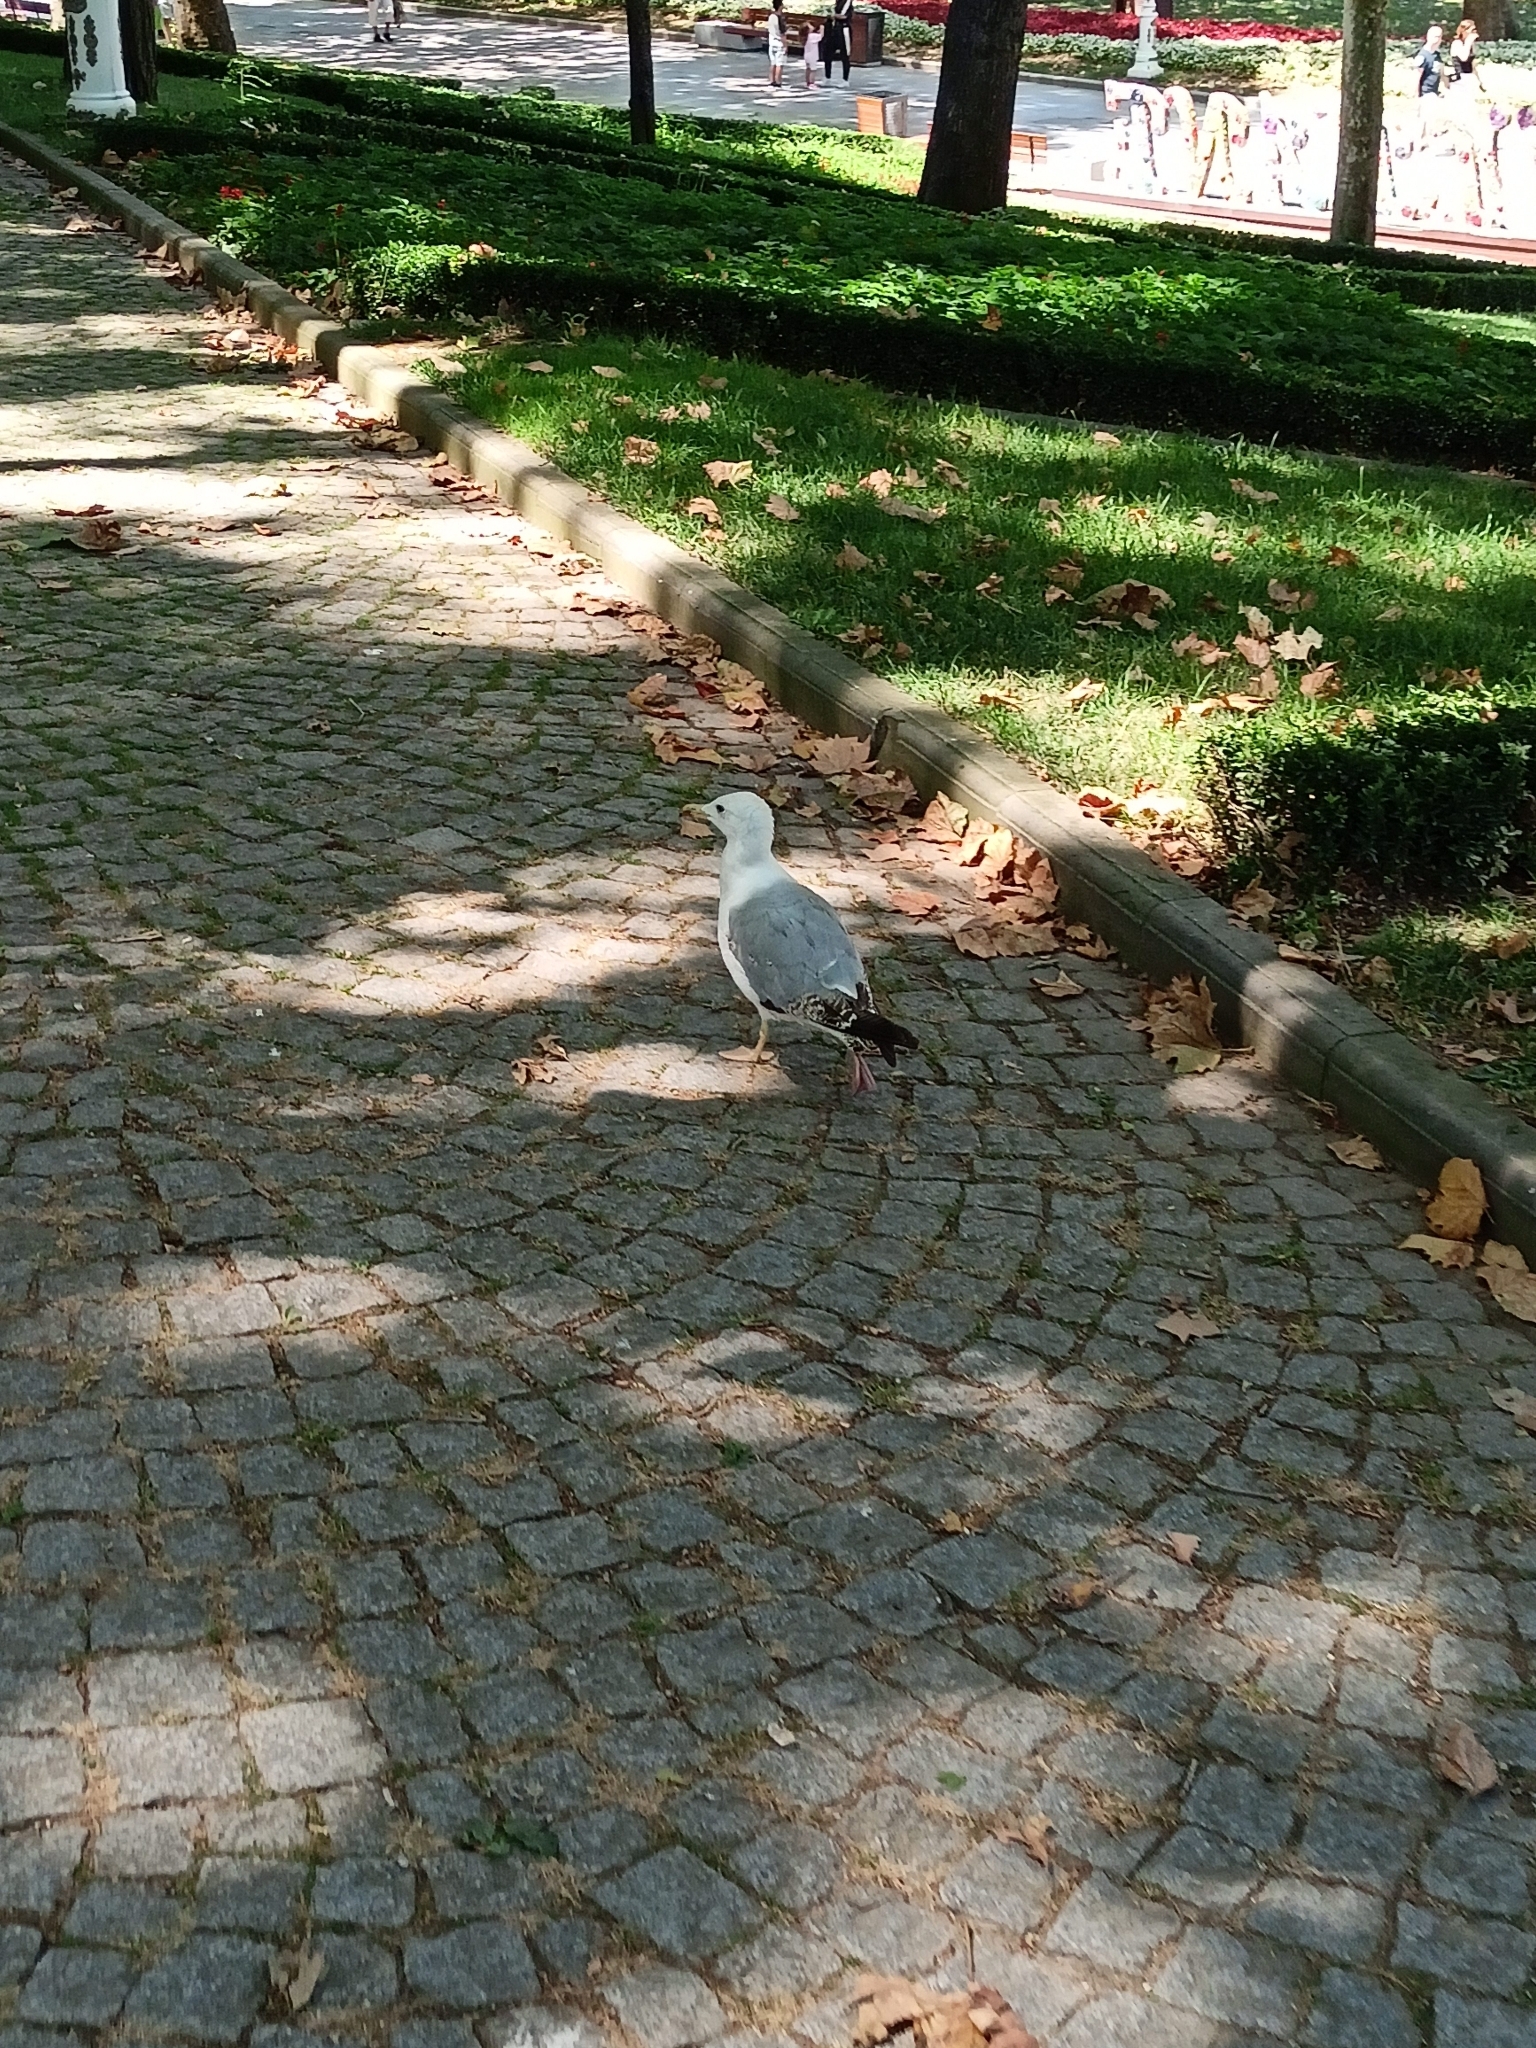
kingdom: Animalia
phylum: Chordata
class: Aves
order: Charadriiformes
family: Laridae
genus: Larus
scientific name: Larus michahellis
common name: Yellow-legged gull
